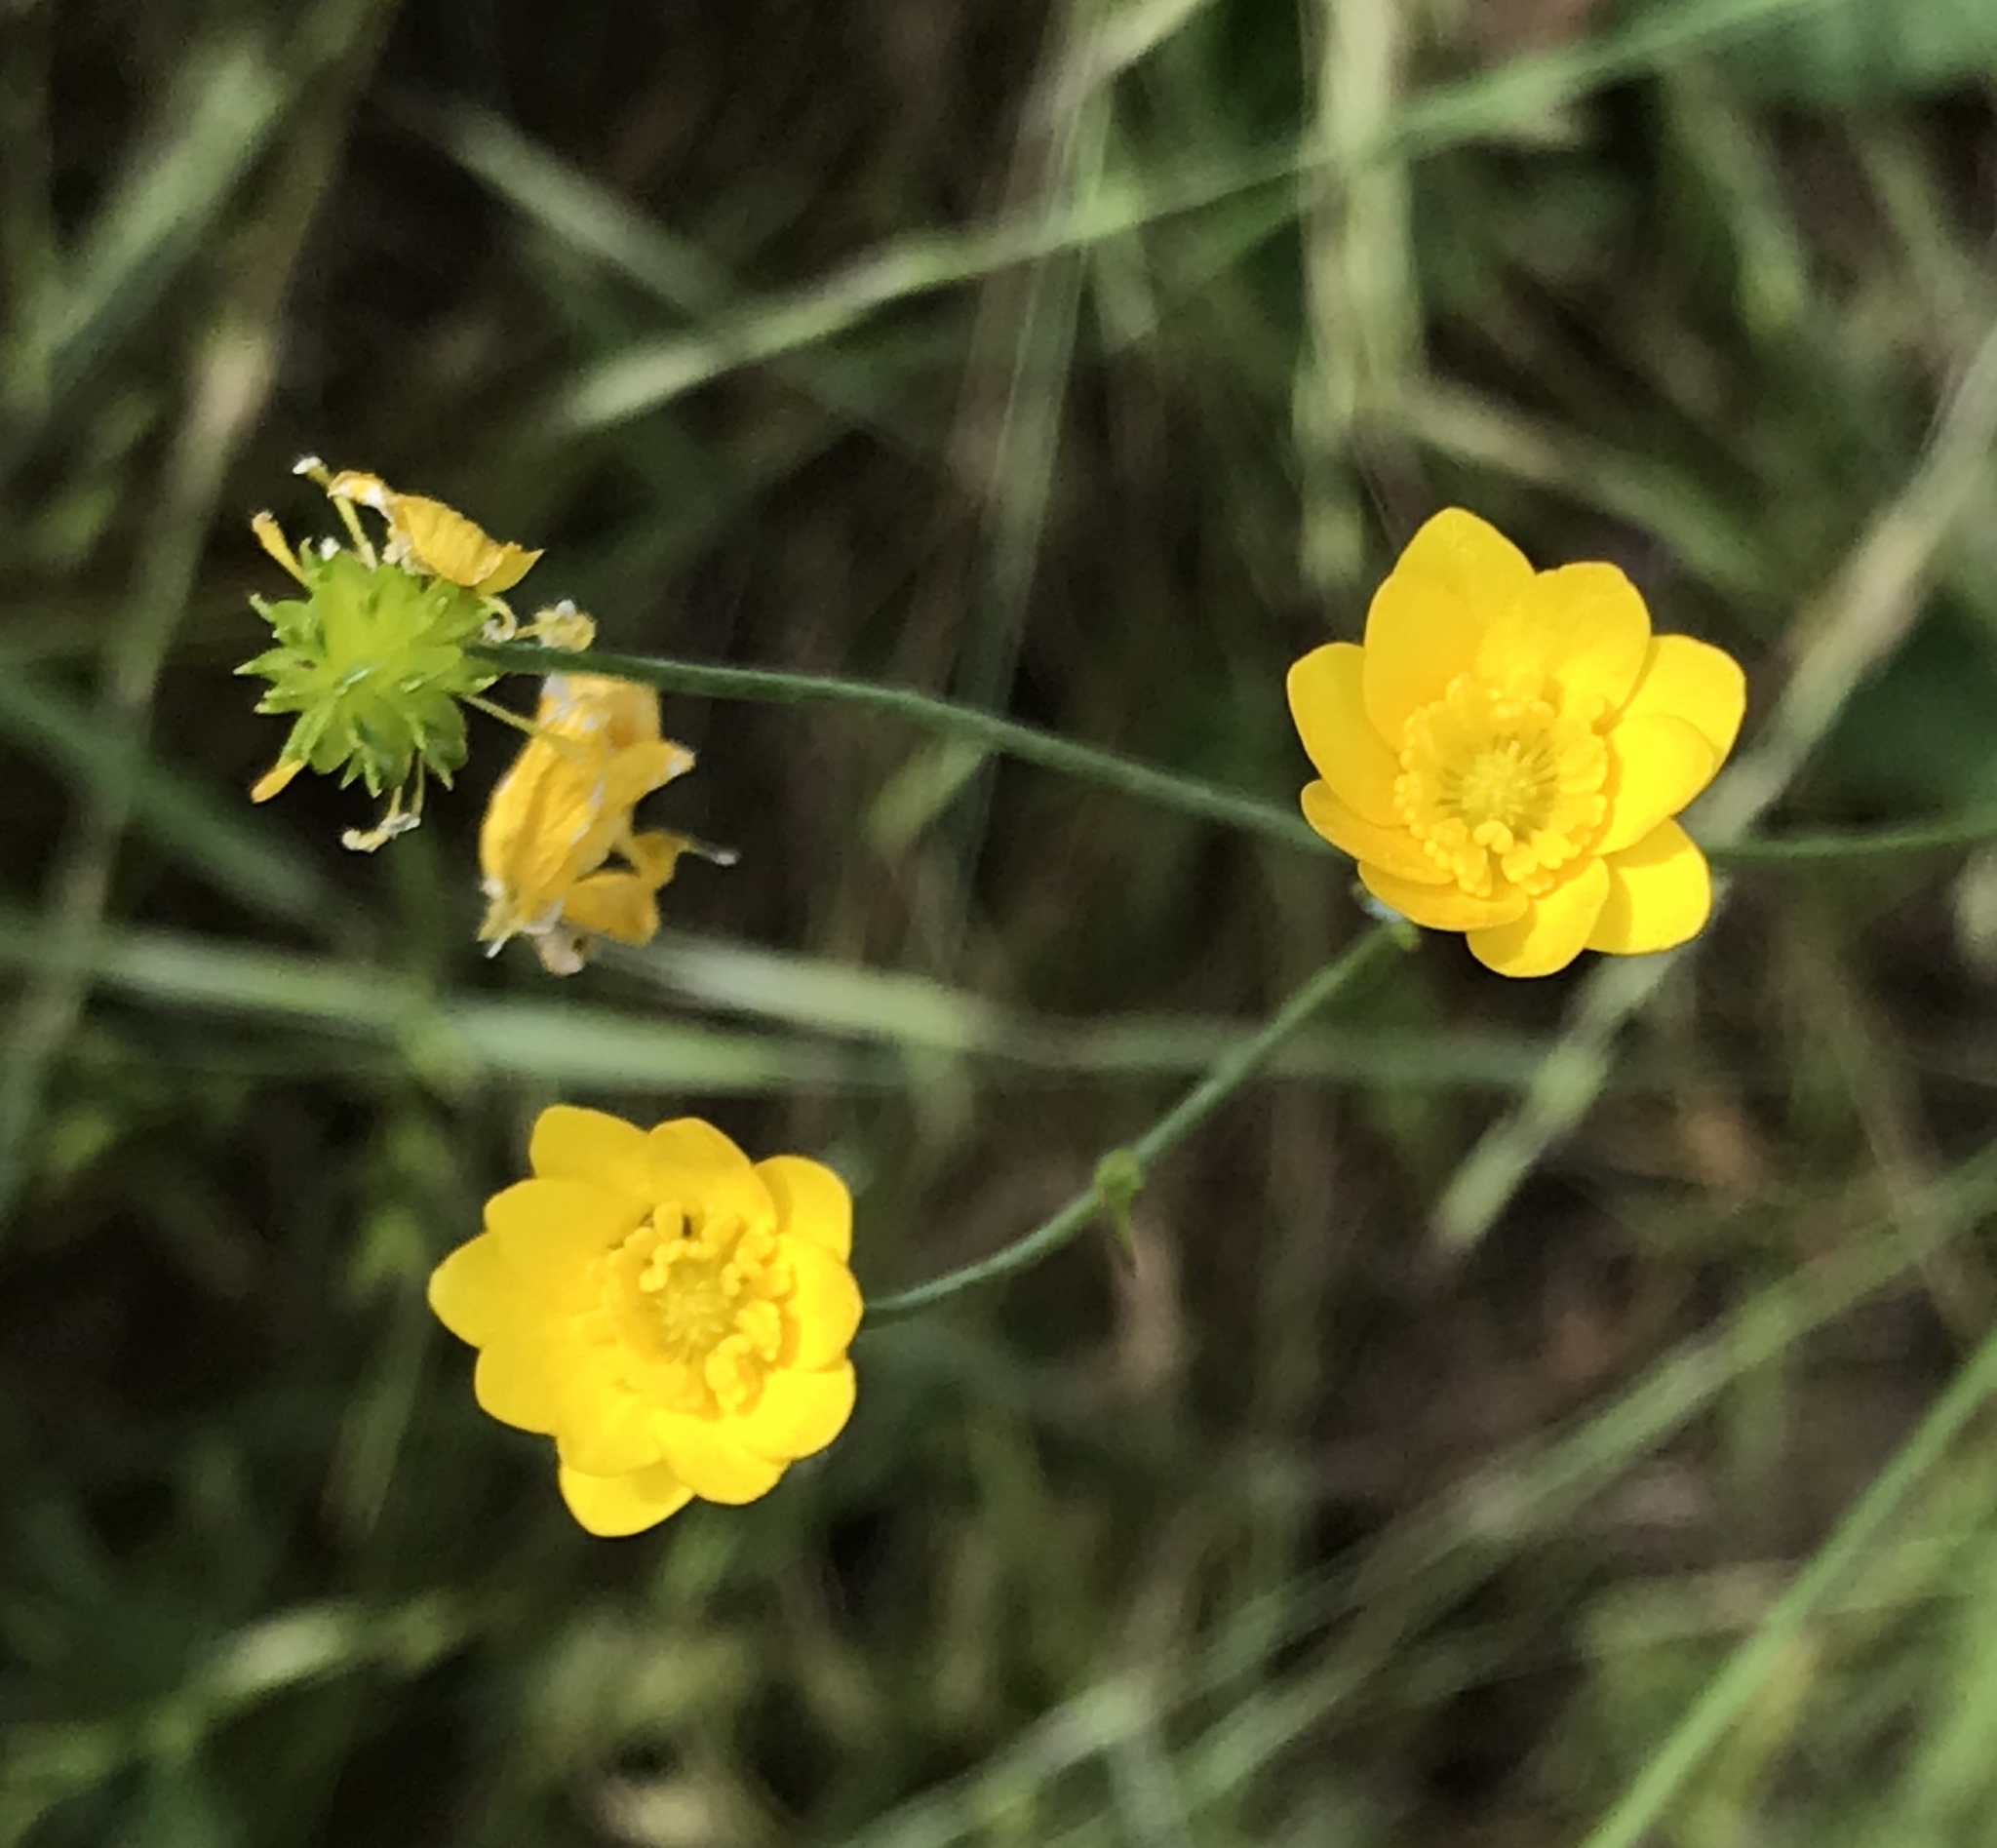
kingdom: Plantae
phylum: Tracheophyta
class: Magnoliopsida
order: Ranunculales
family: Ranunculaceae
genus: Ranunculus
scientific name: Ranunculus californicus
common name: California buttercup
